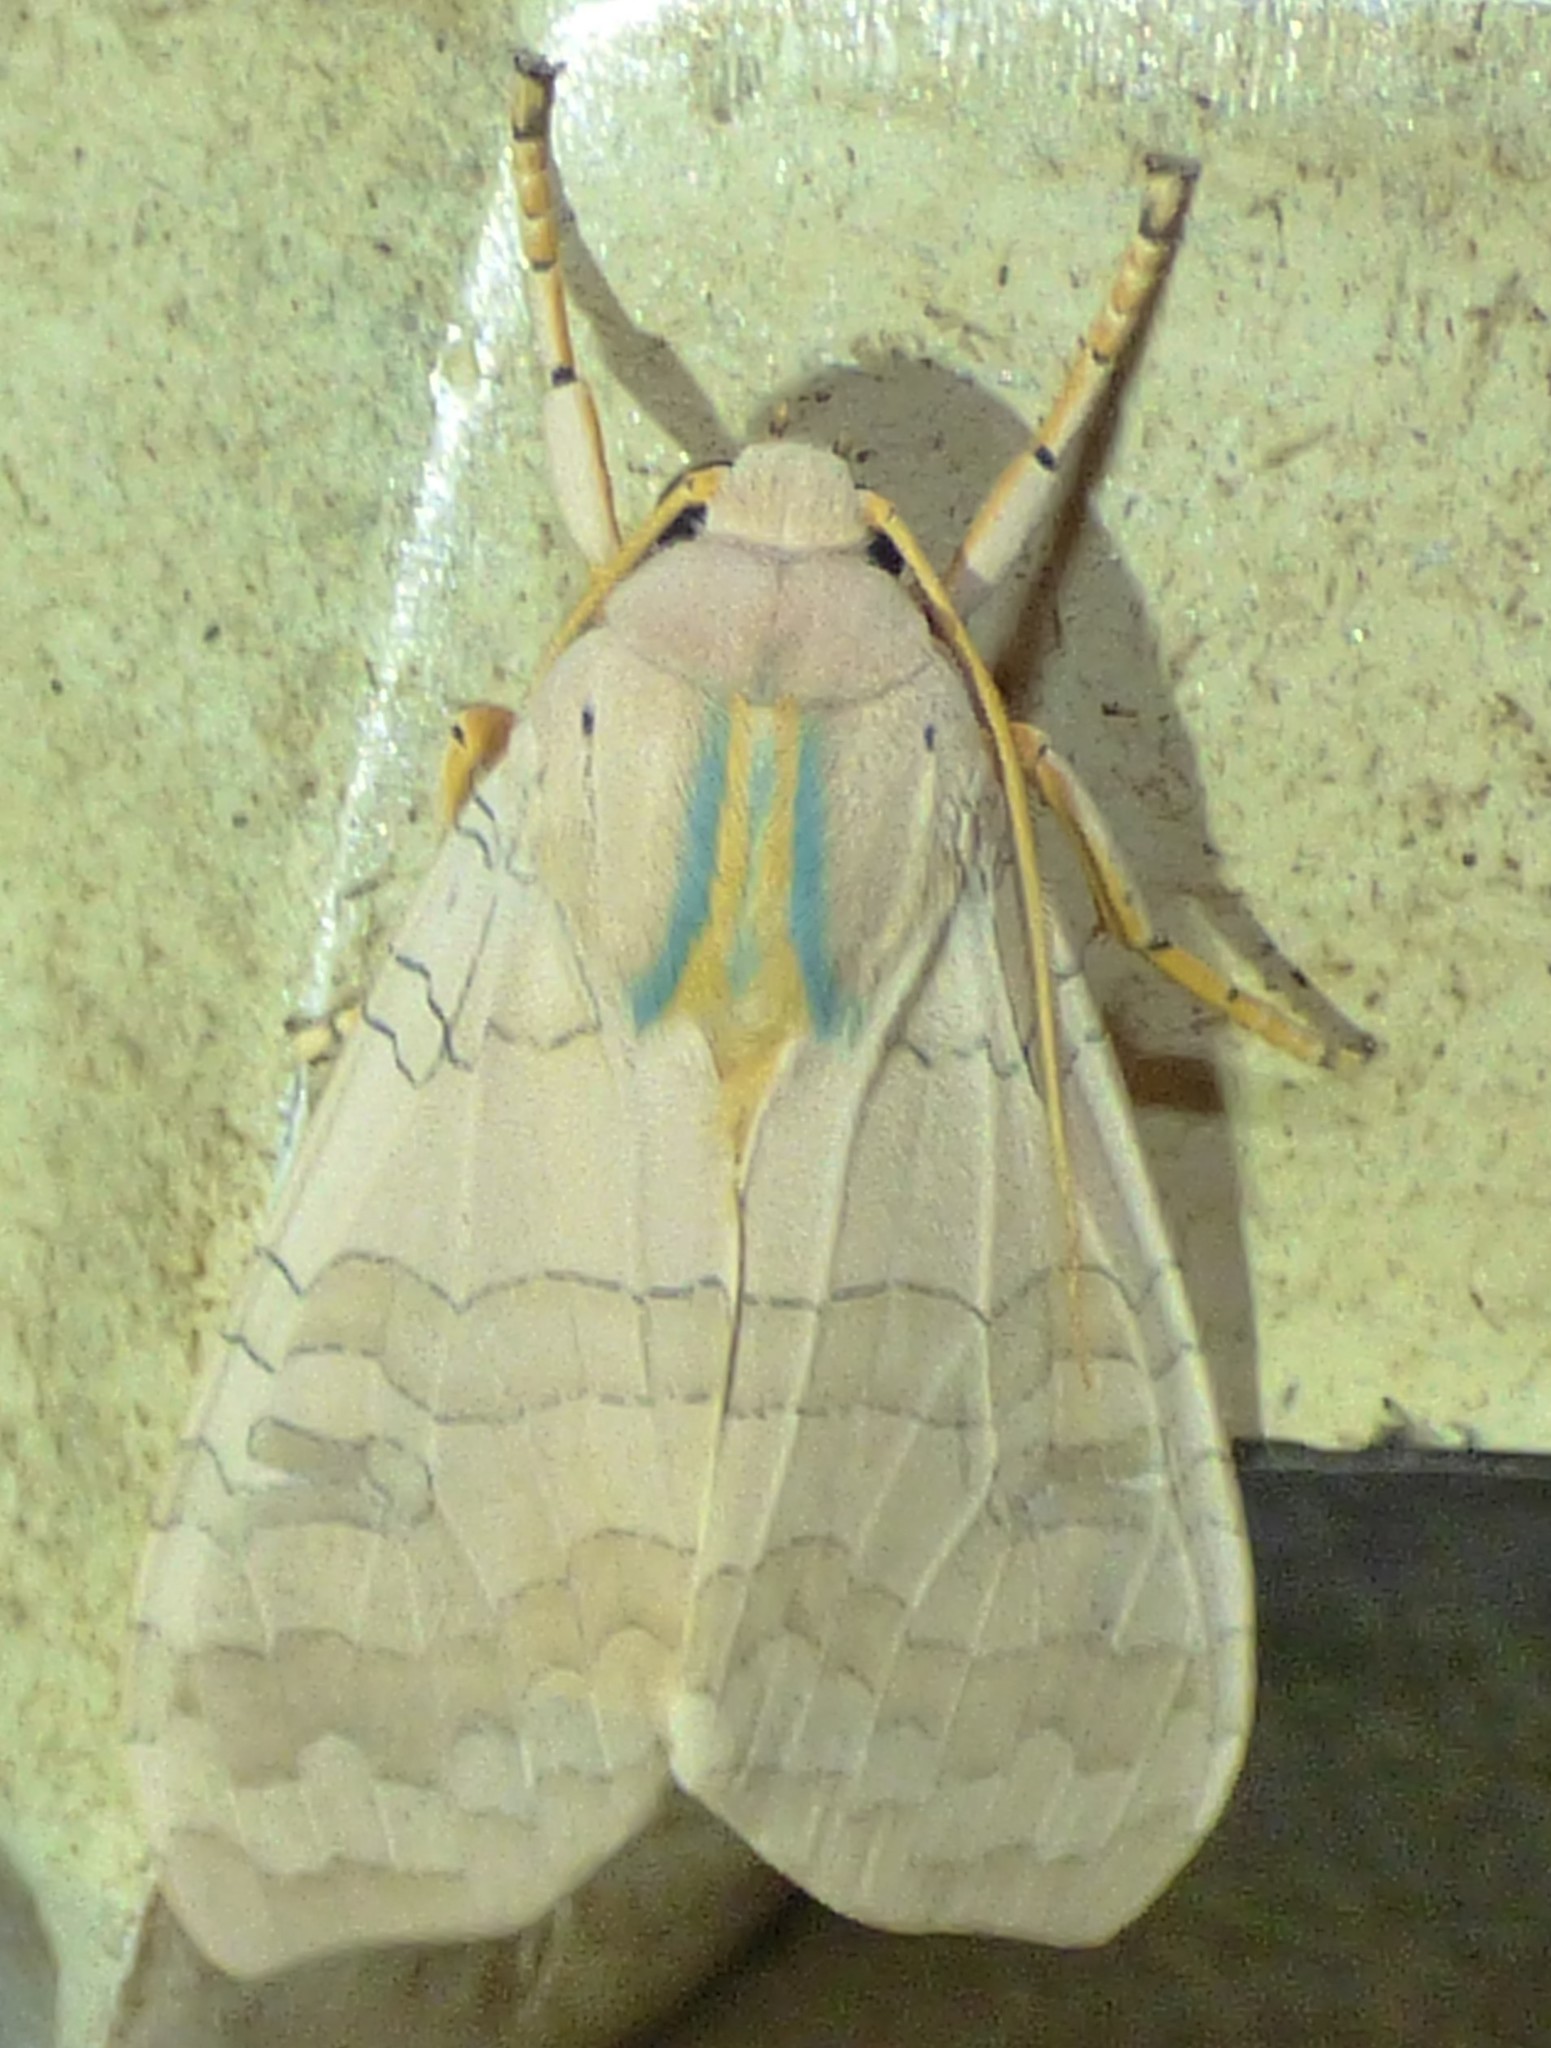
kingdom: Animalia
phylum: Arthropoda
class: Insecta
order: Lepidoptera
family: Erebidae
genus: Halysidota
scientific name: Halysidota
